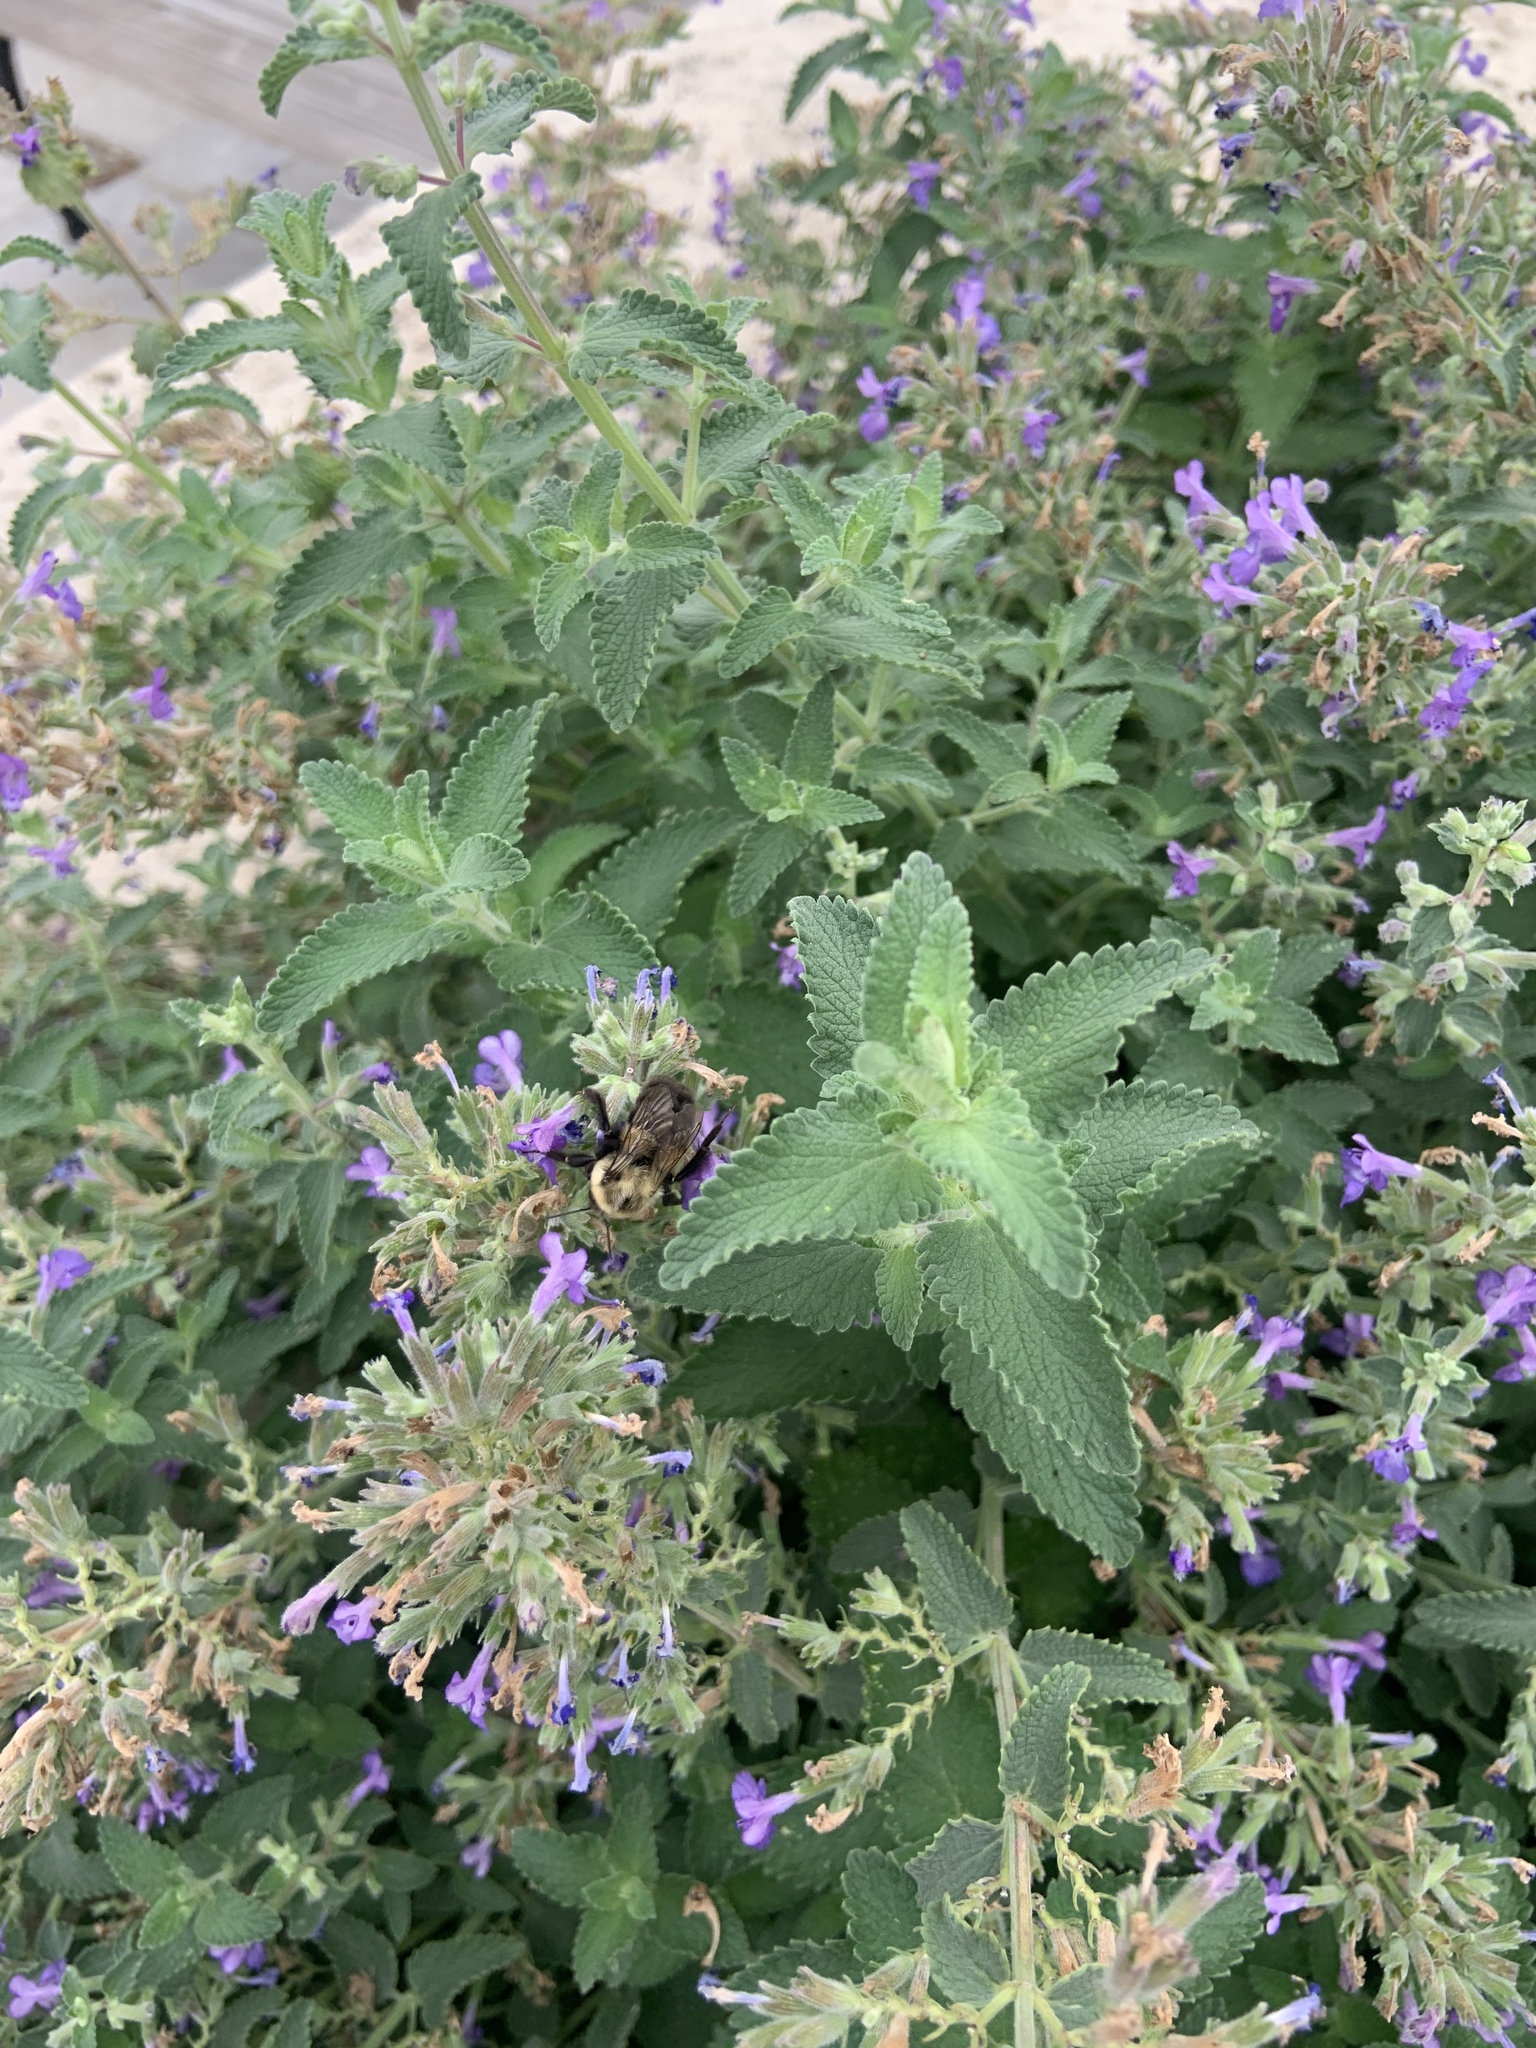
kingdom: Animalia
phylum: Arthropoda
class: Insecta
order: Hymenoptera
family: Apidae
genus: Bombus
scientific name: Bombus impatiens
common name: Common eastern bumble bee
